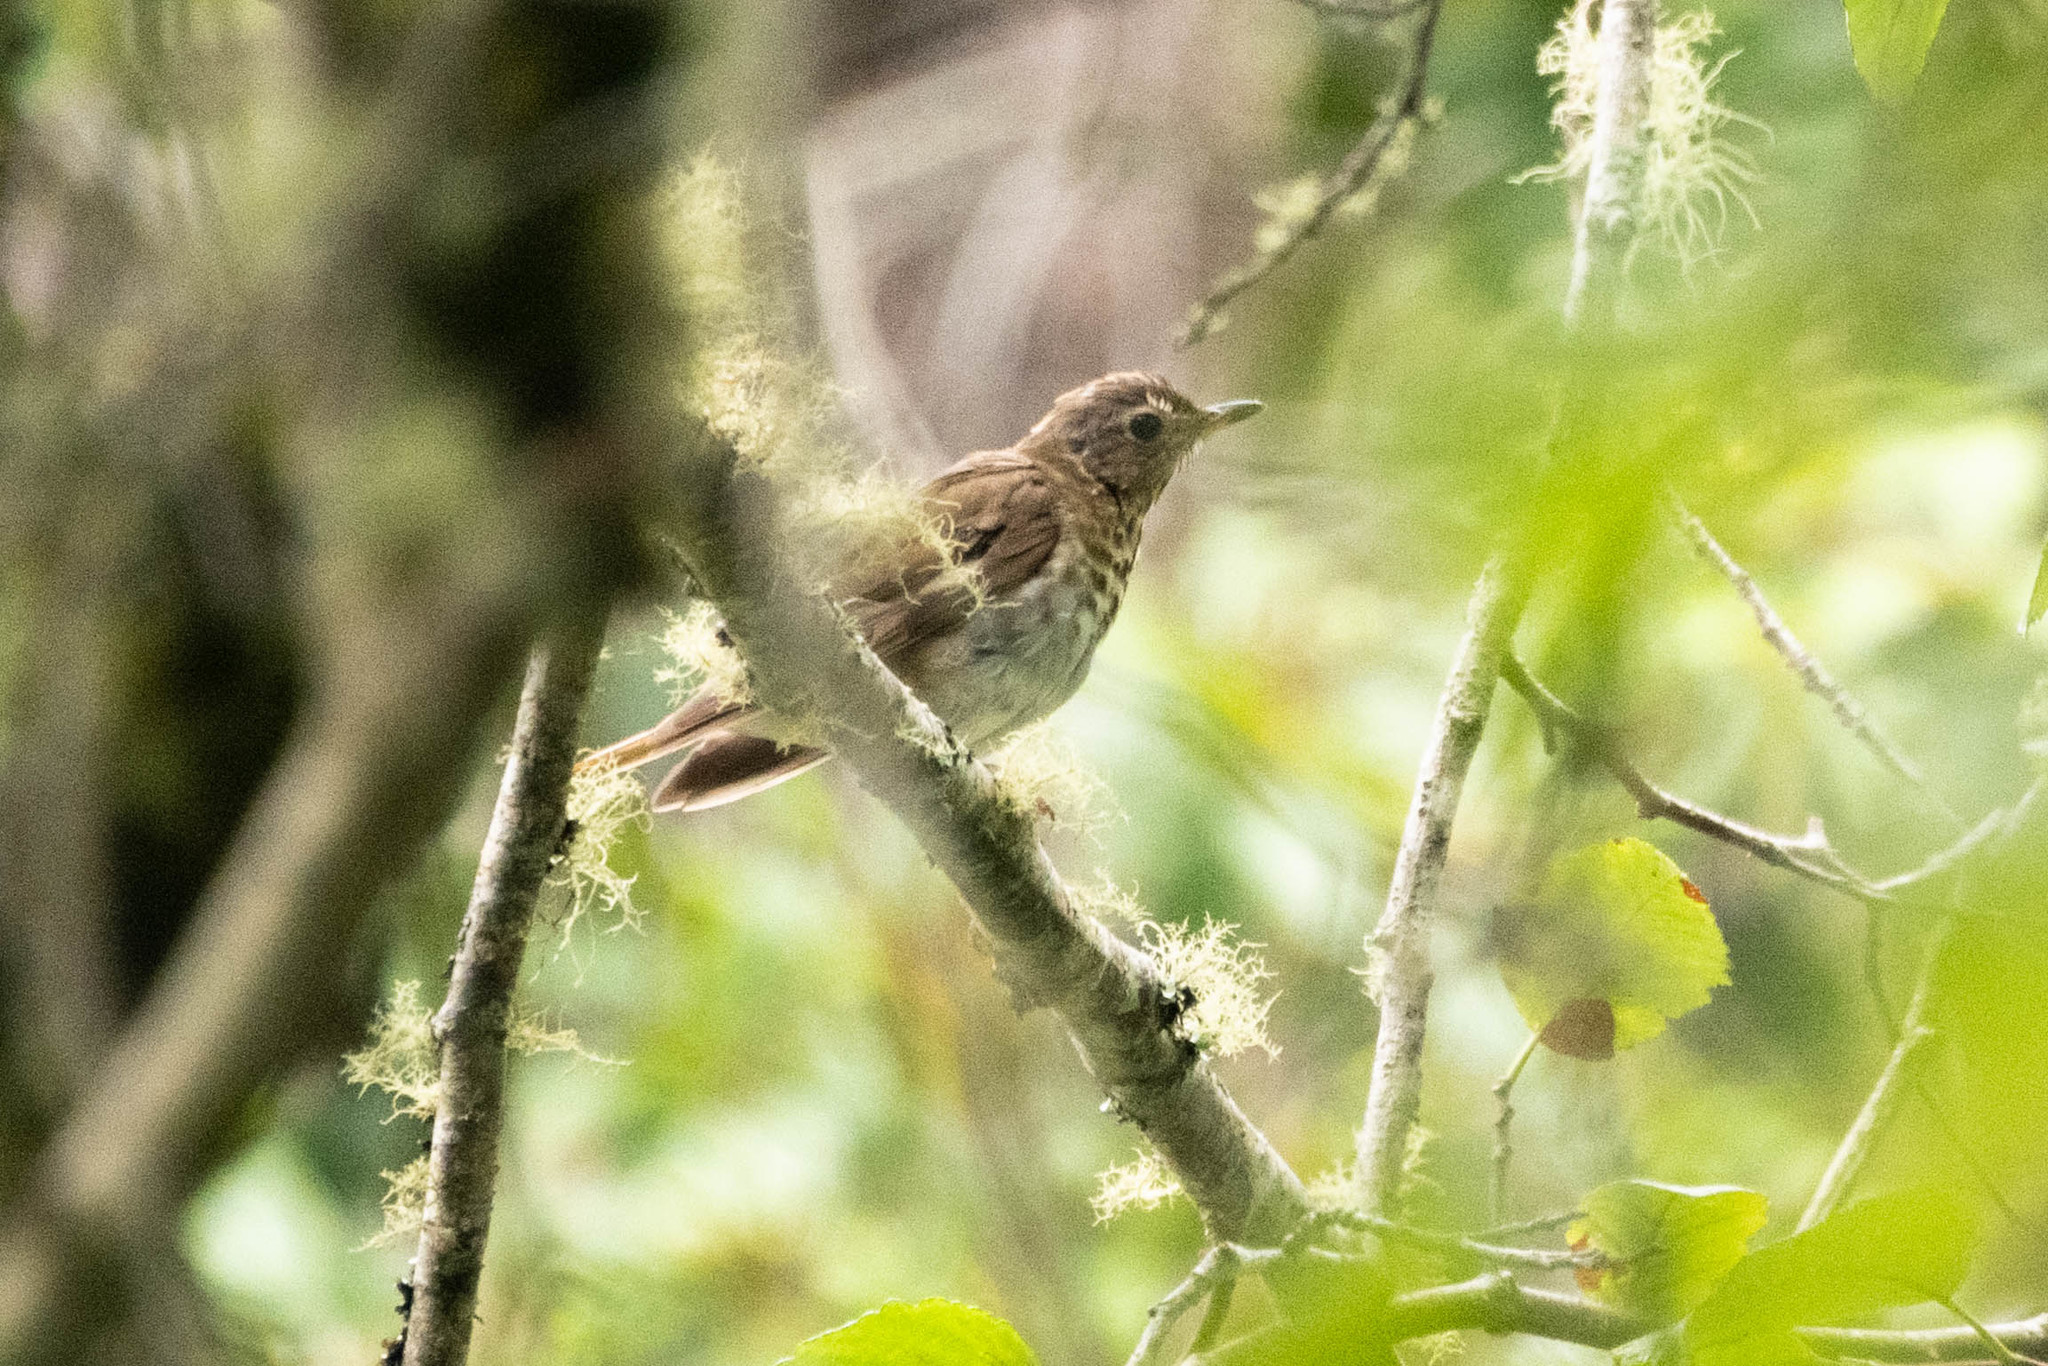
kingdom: Animalia
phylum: Chordata
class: Aves
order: Passeriformes
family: Turdidae
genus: Catharus
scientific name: Catharus ustulatus
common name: Swainson's thrush
